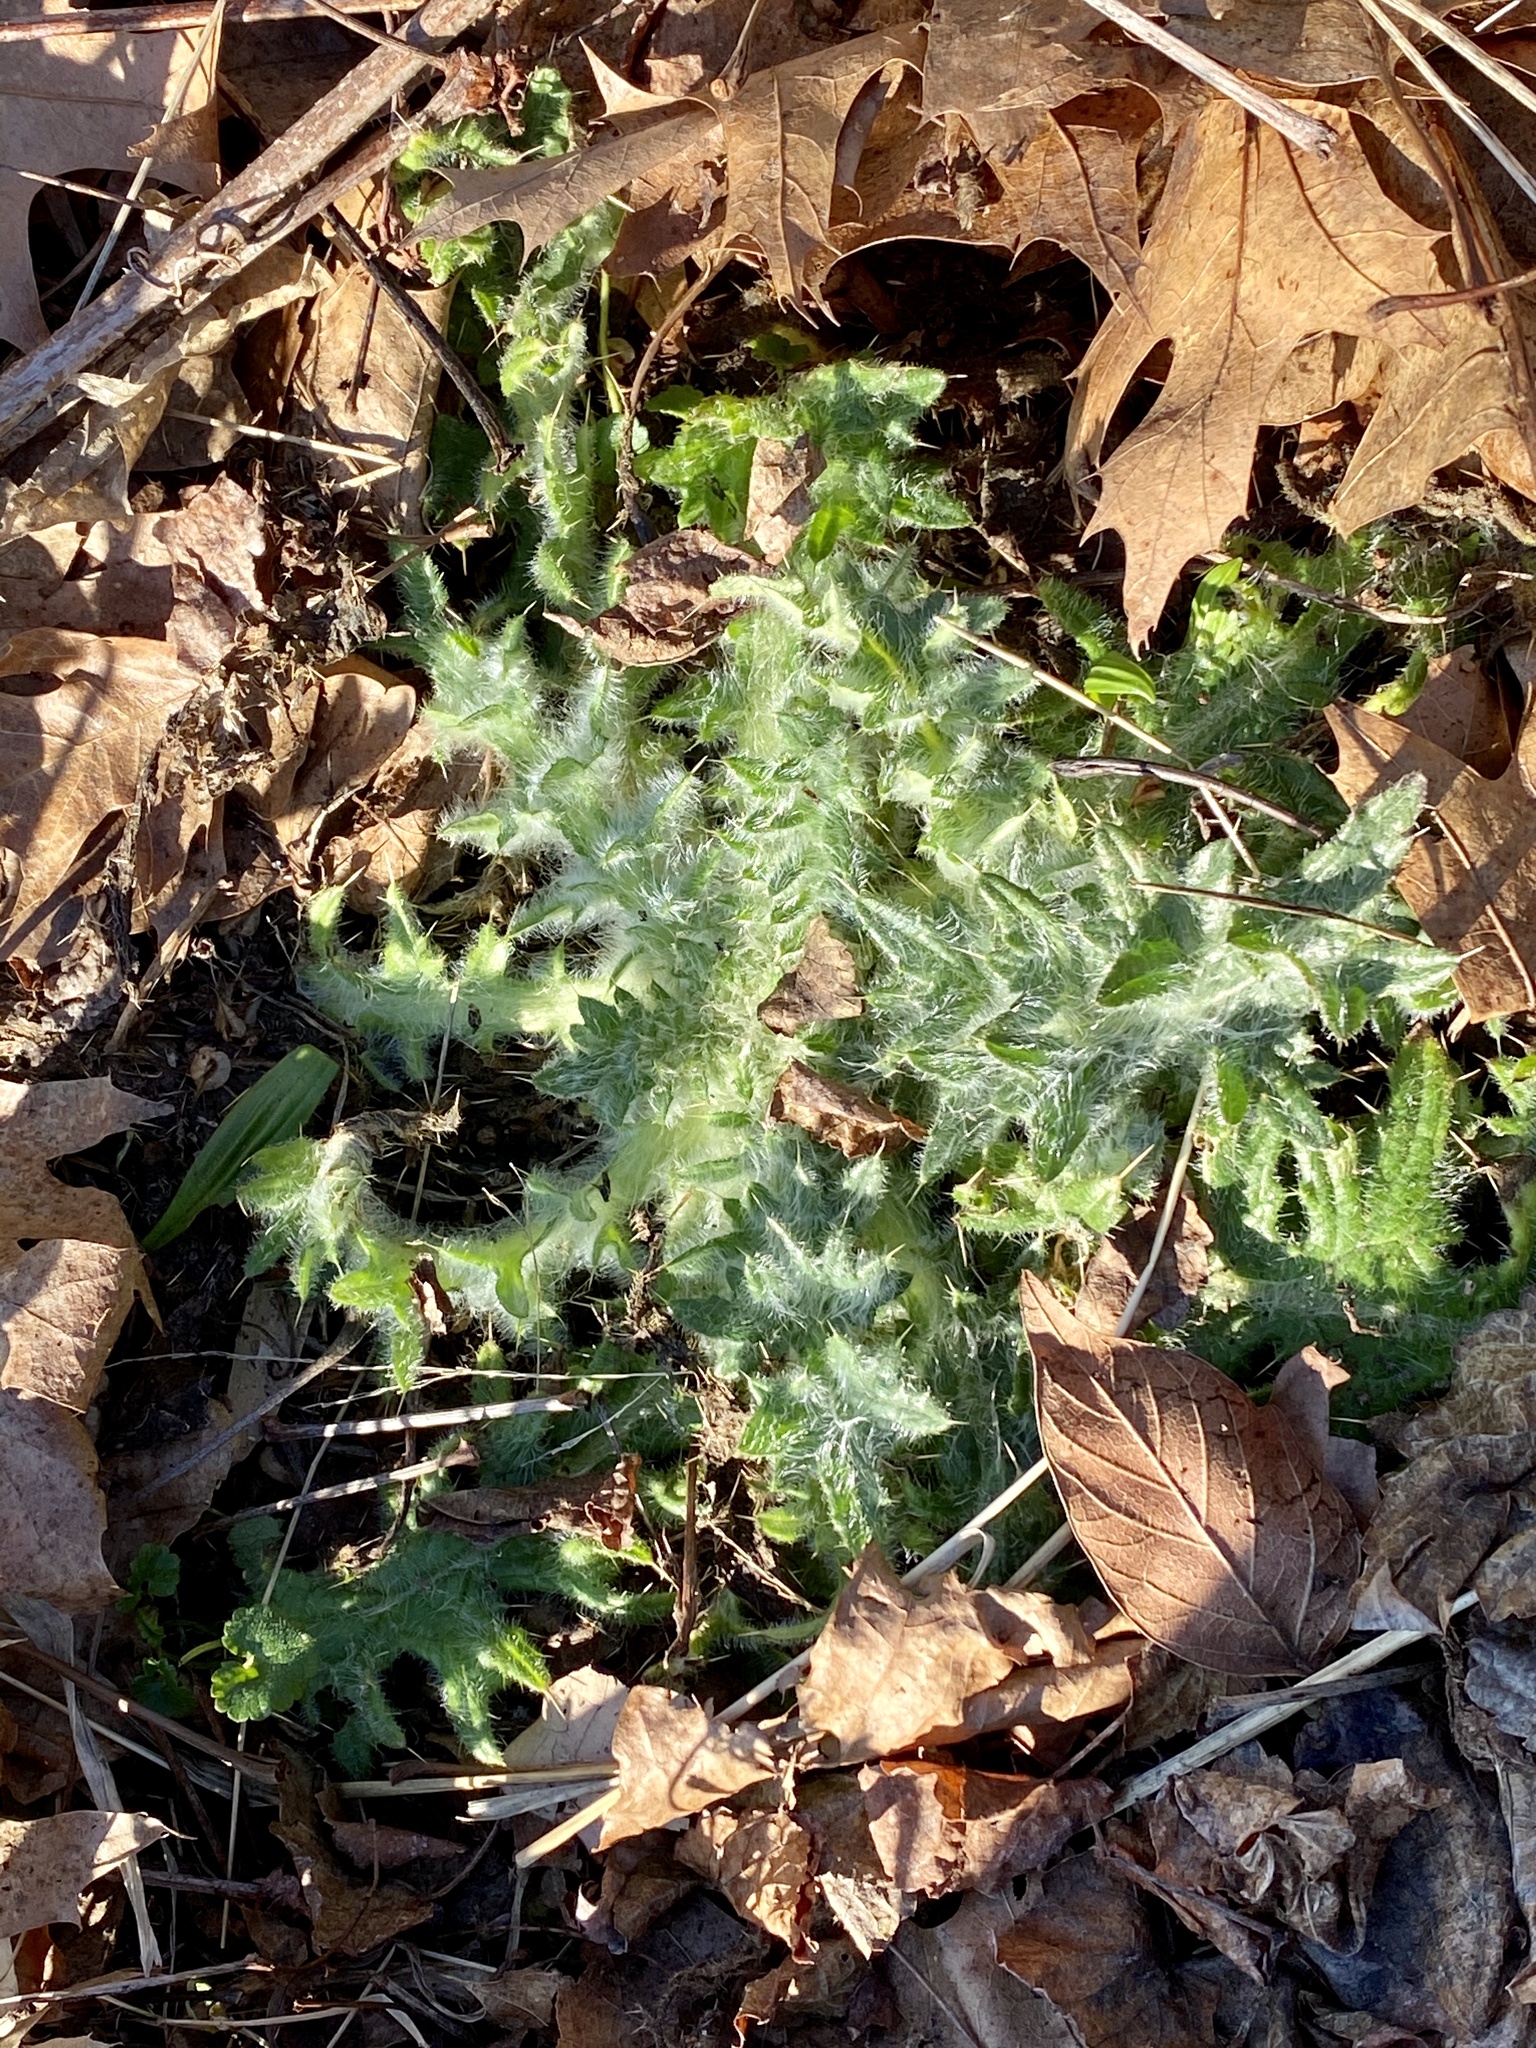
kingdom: Plantae
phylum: Tracheophyta
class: Magnoliopsida
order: Asterales
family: Asteraceae
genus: Cirsium
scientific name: Cirsium vulgare
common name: Bull thistle
